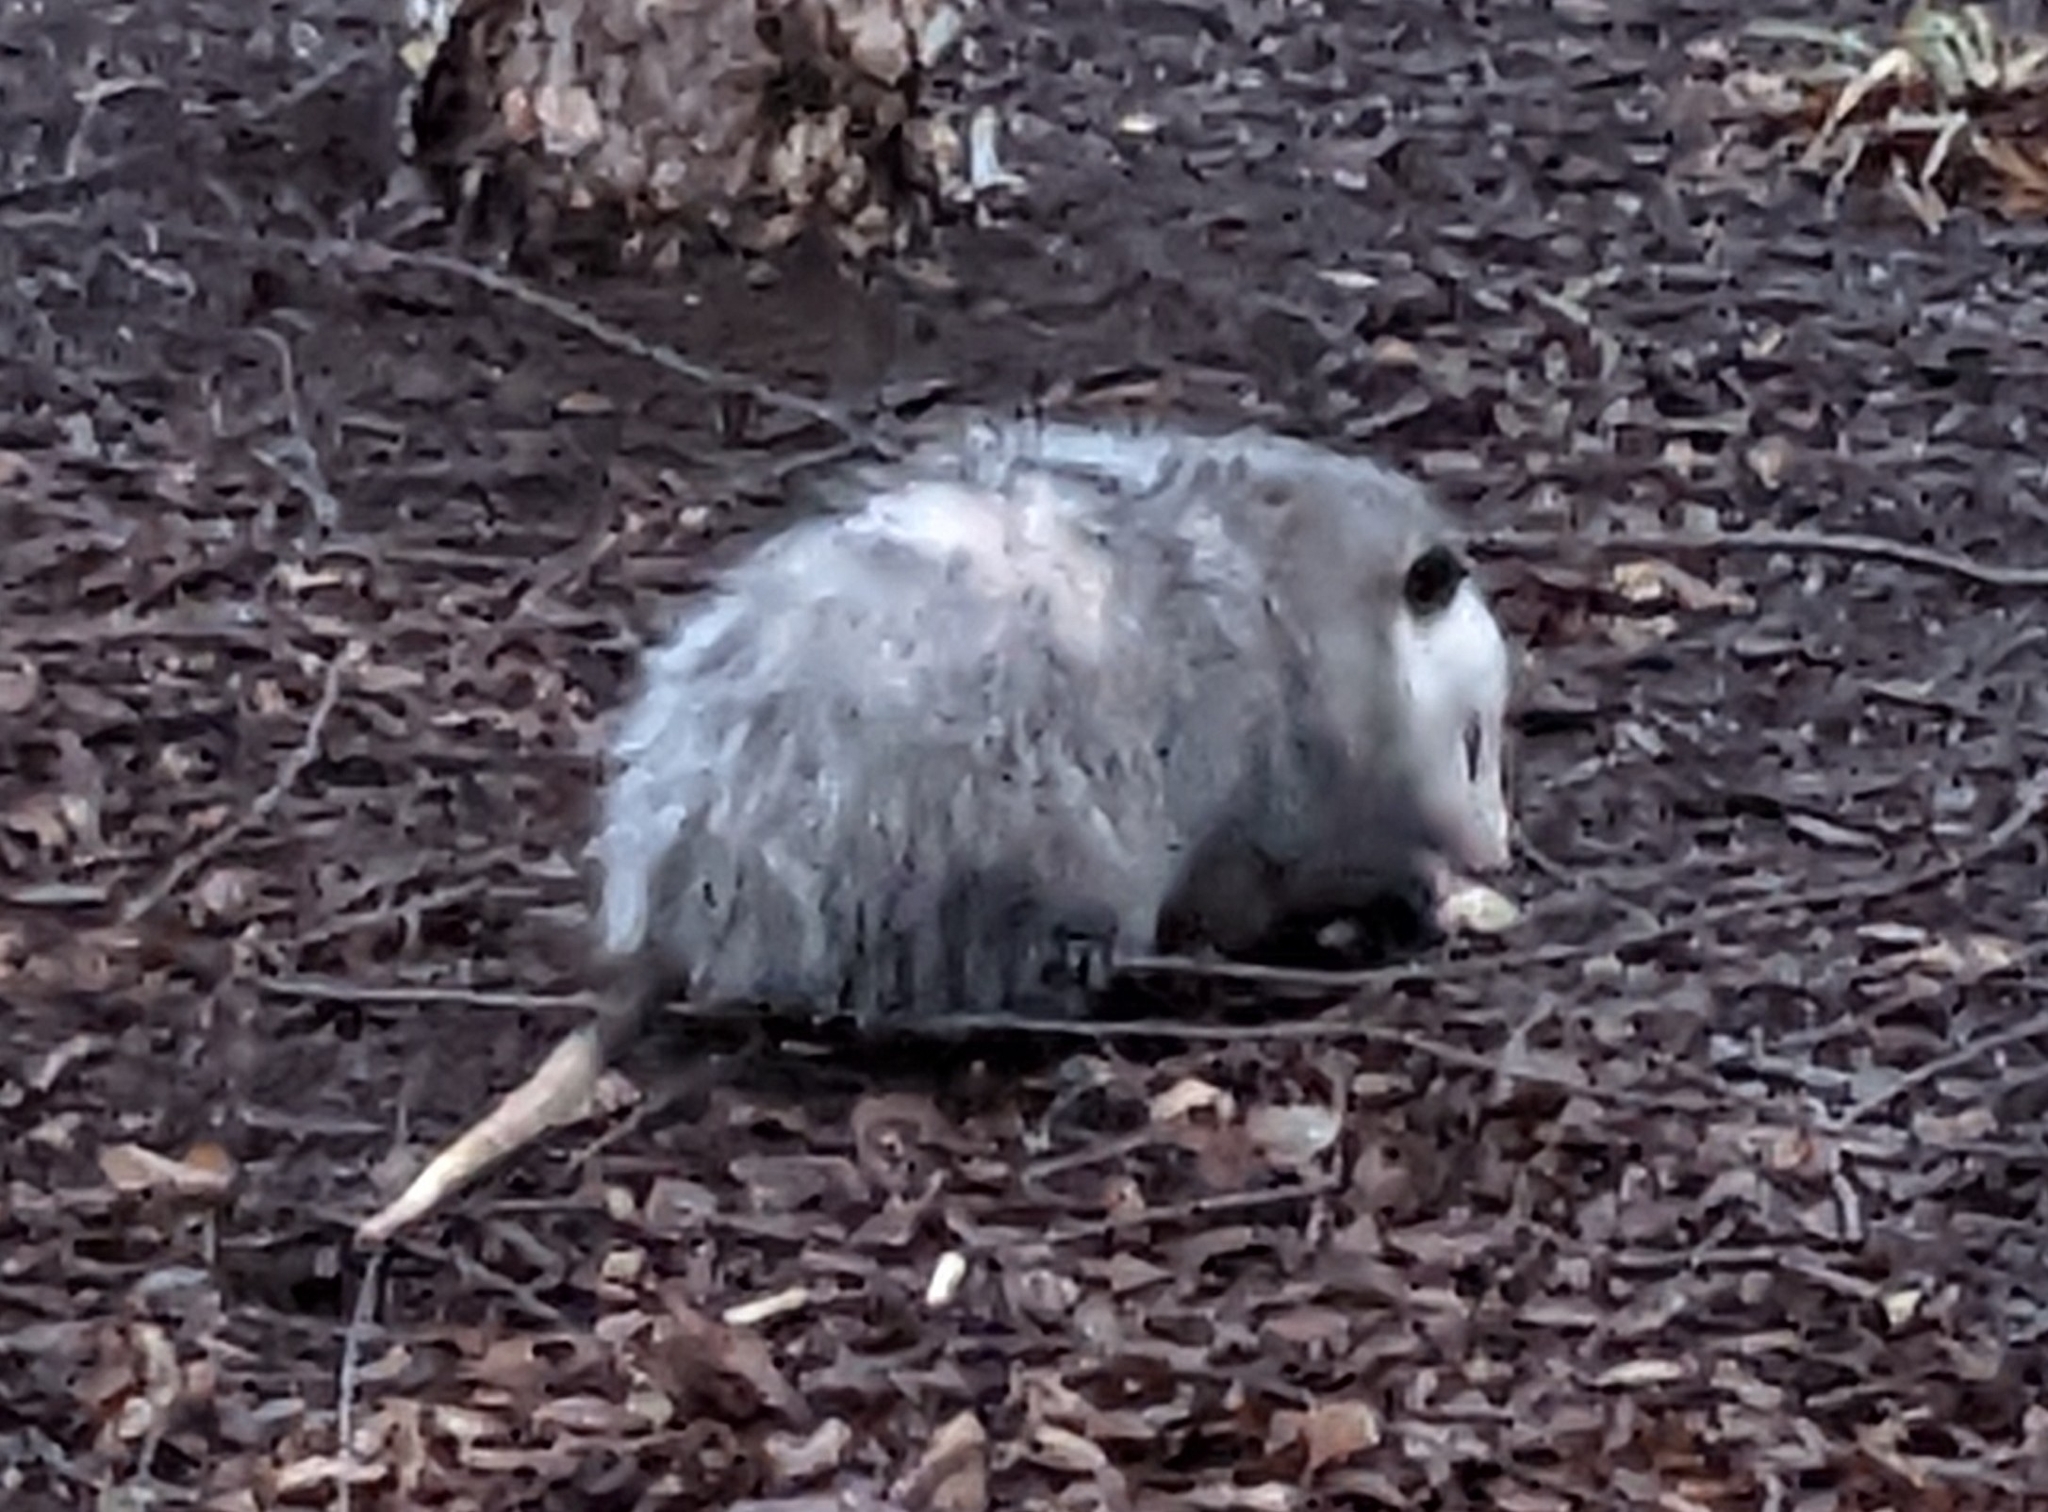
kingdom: Animalia
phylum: Chordata
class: Mammalia
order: Didelphimorphia
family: Didelphidae
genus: Didelphis
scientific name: Didelphis virginiana
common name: Virginia opossum
